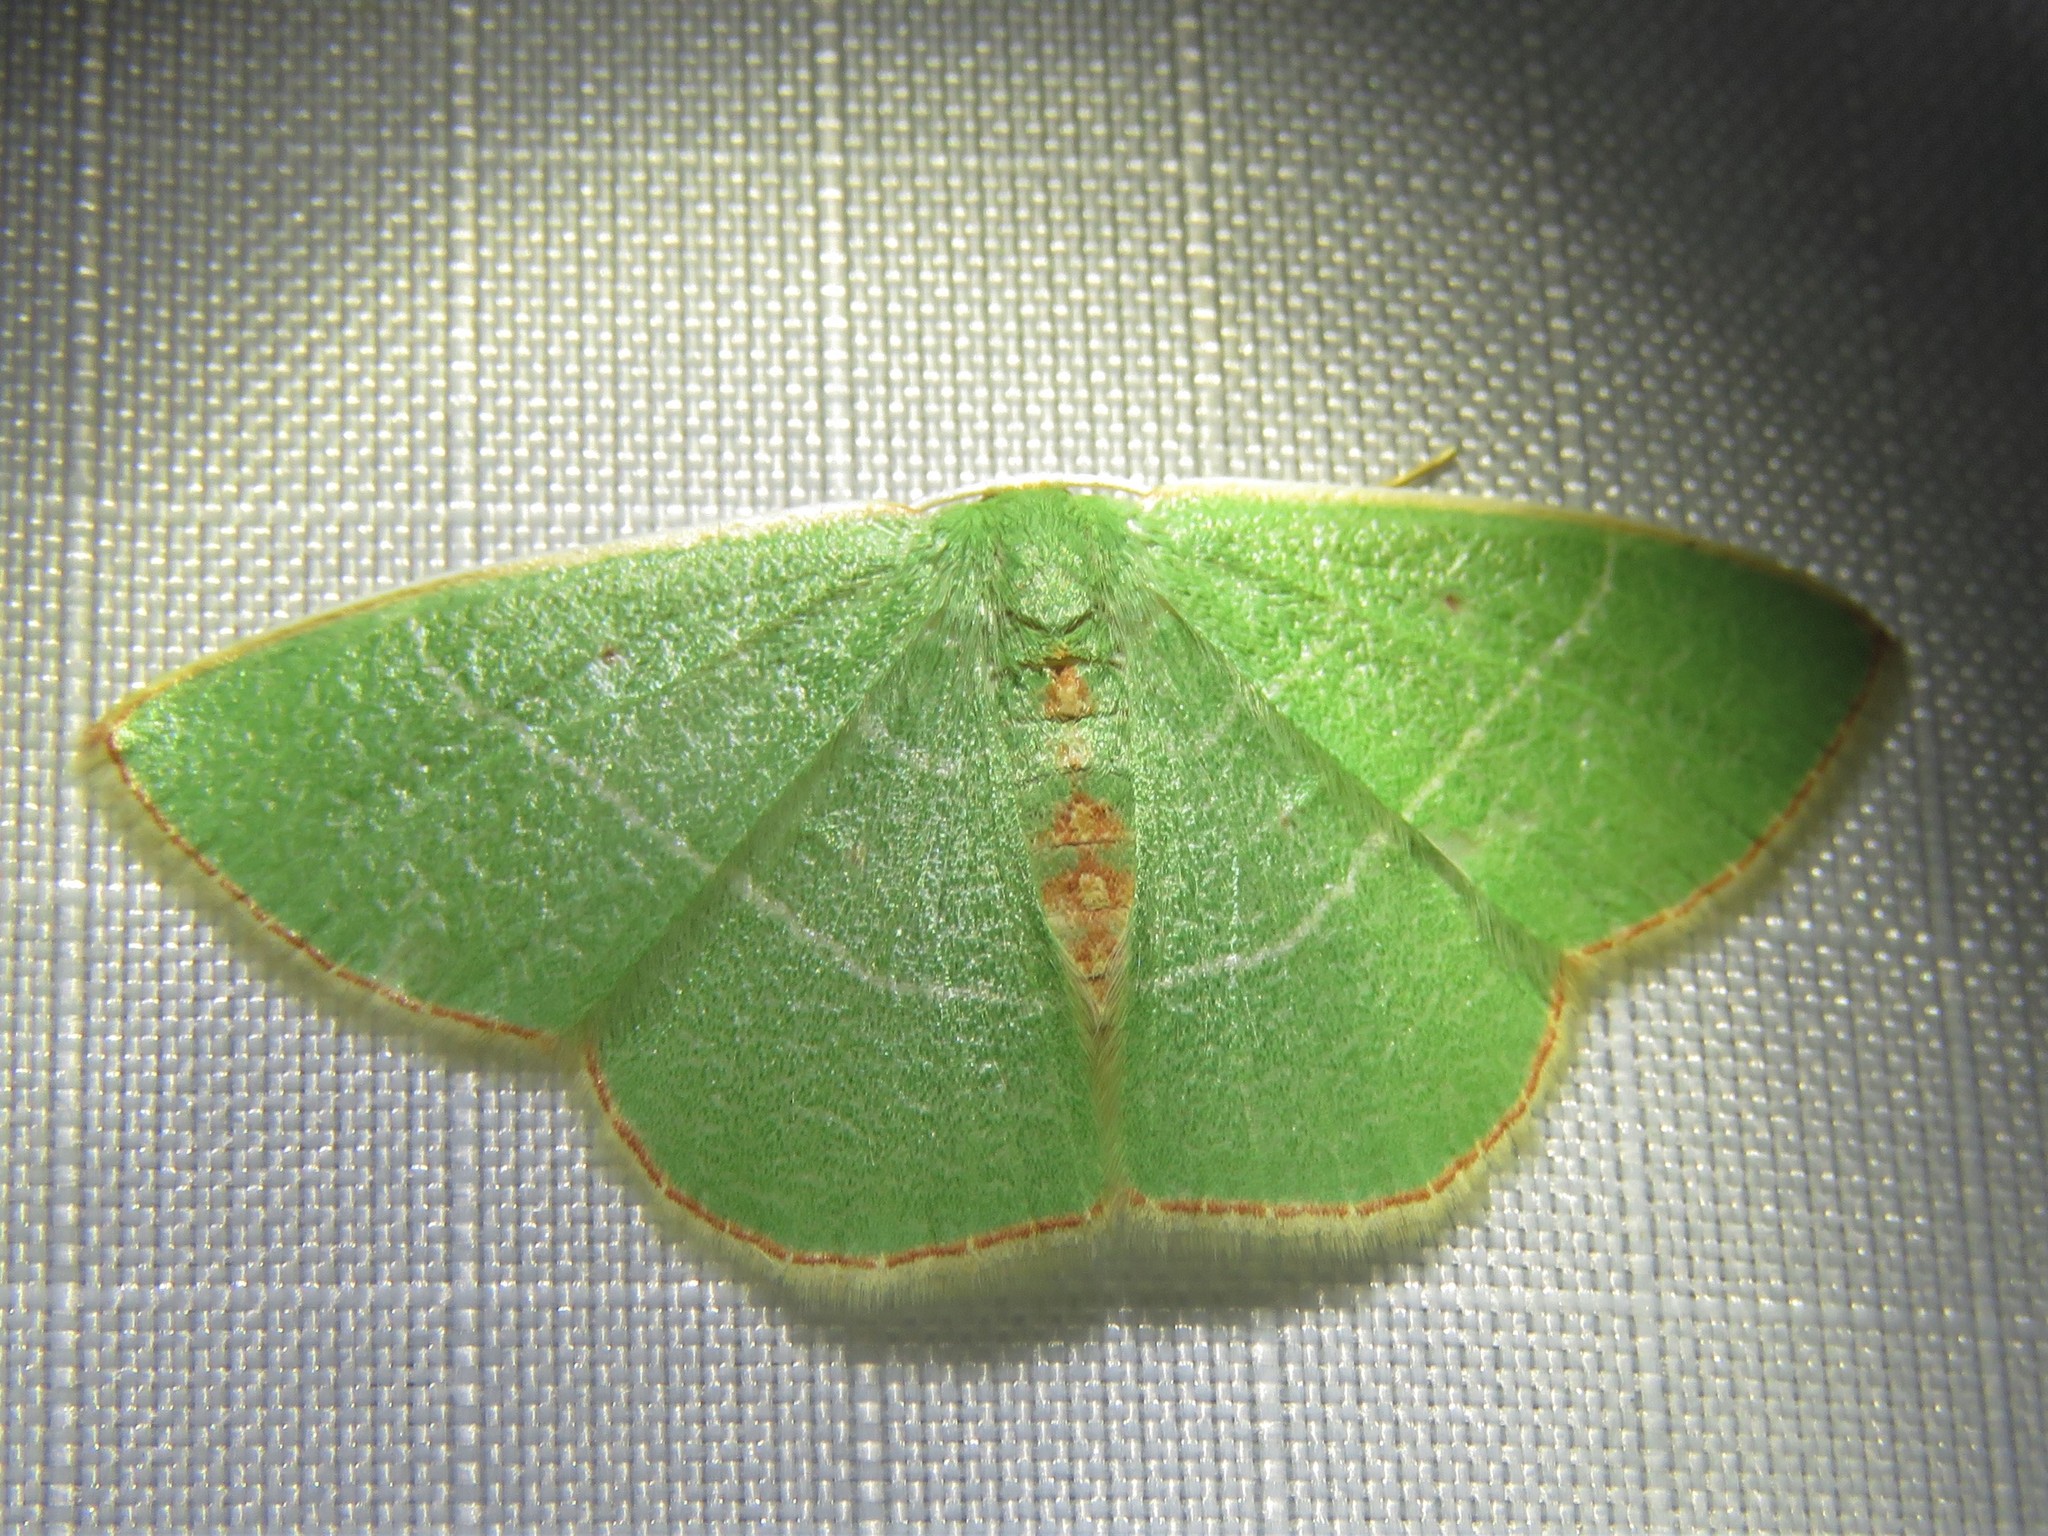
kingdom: Animalia
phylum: Arthropoda
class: Insecta
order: Lepidoptera
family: Geometridae
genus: Nemoria
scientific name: Nemoria bifilata
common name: White-barred emerald moth
